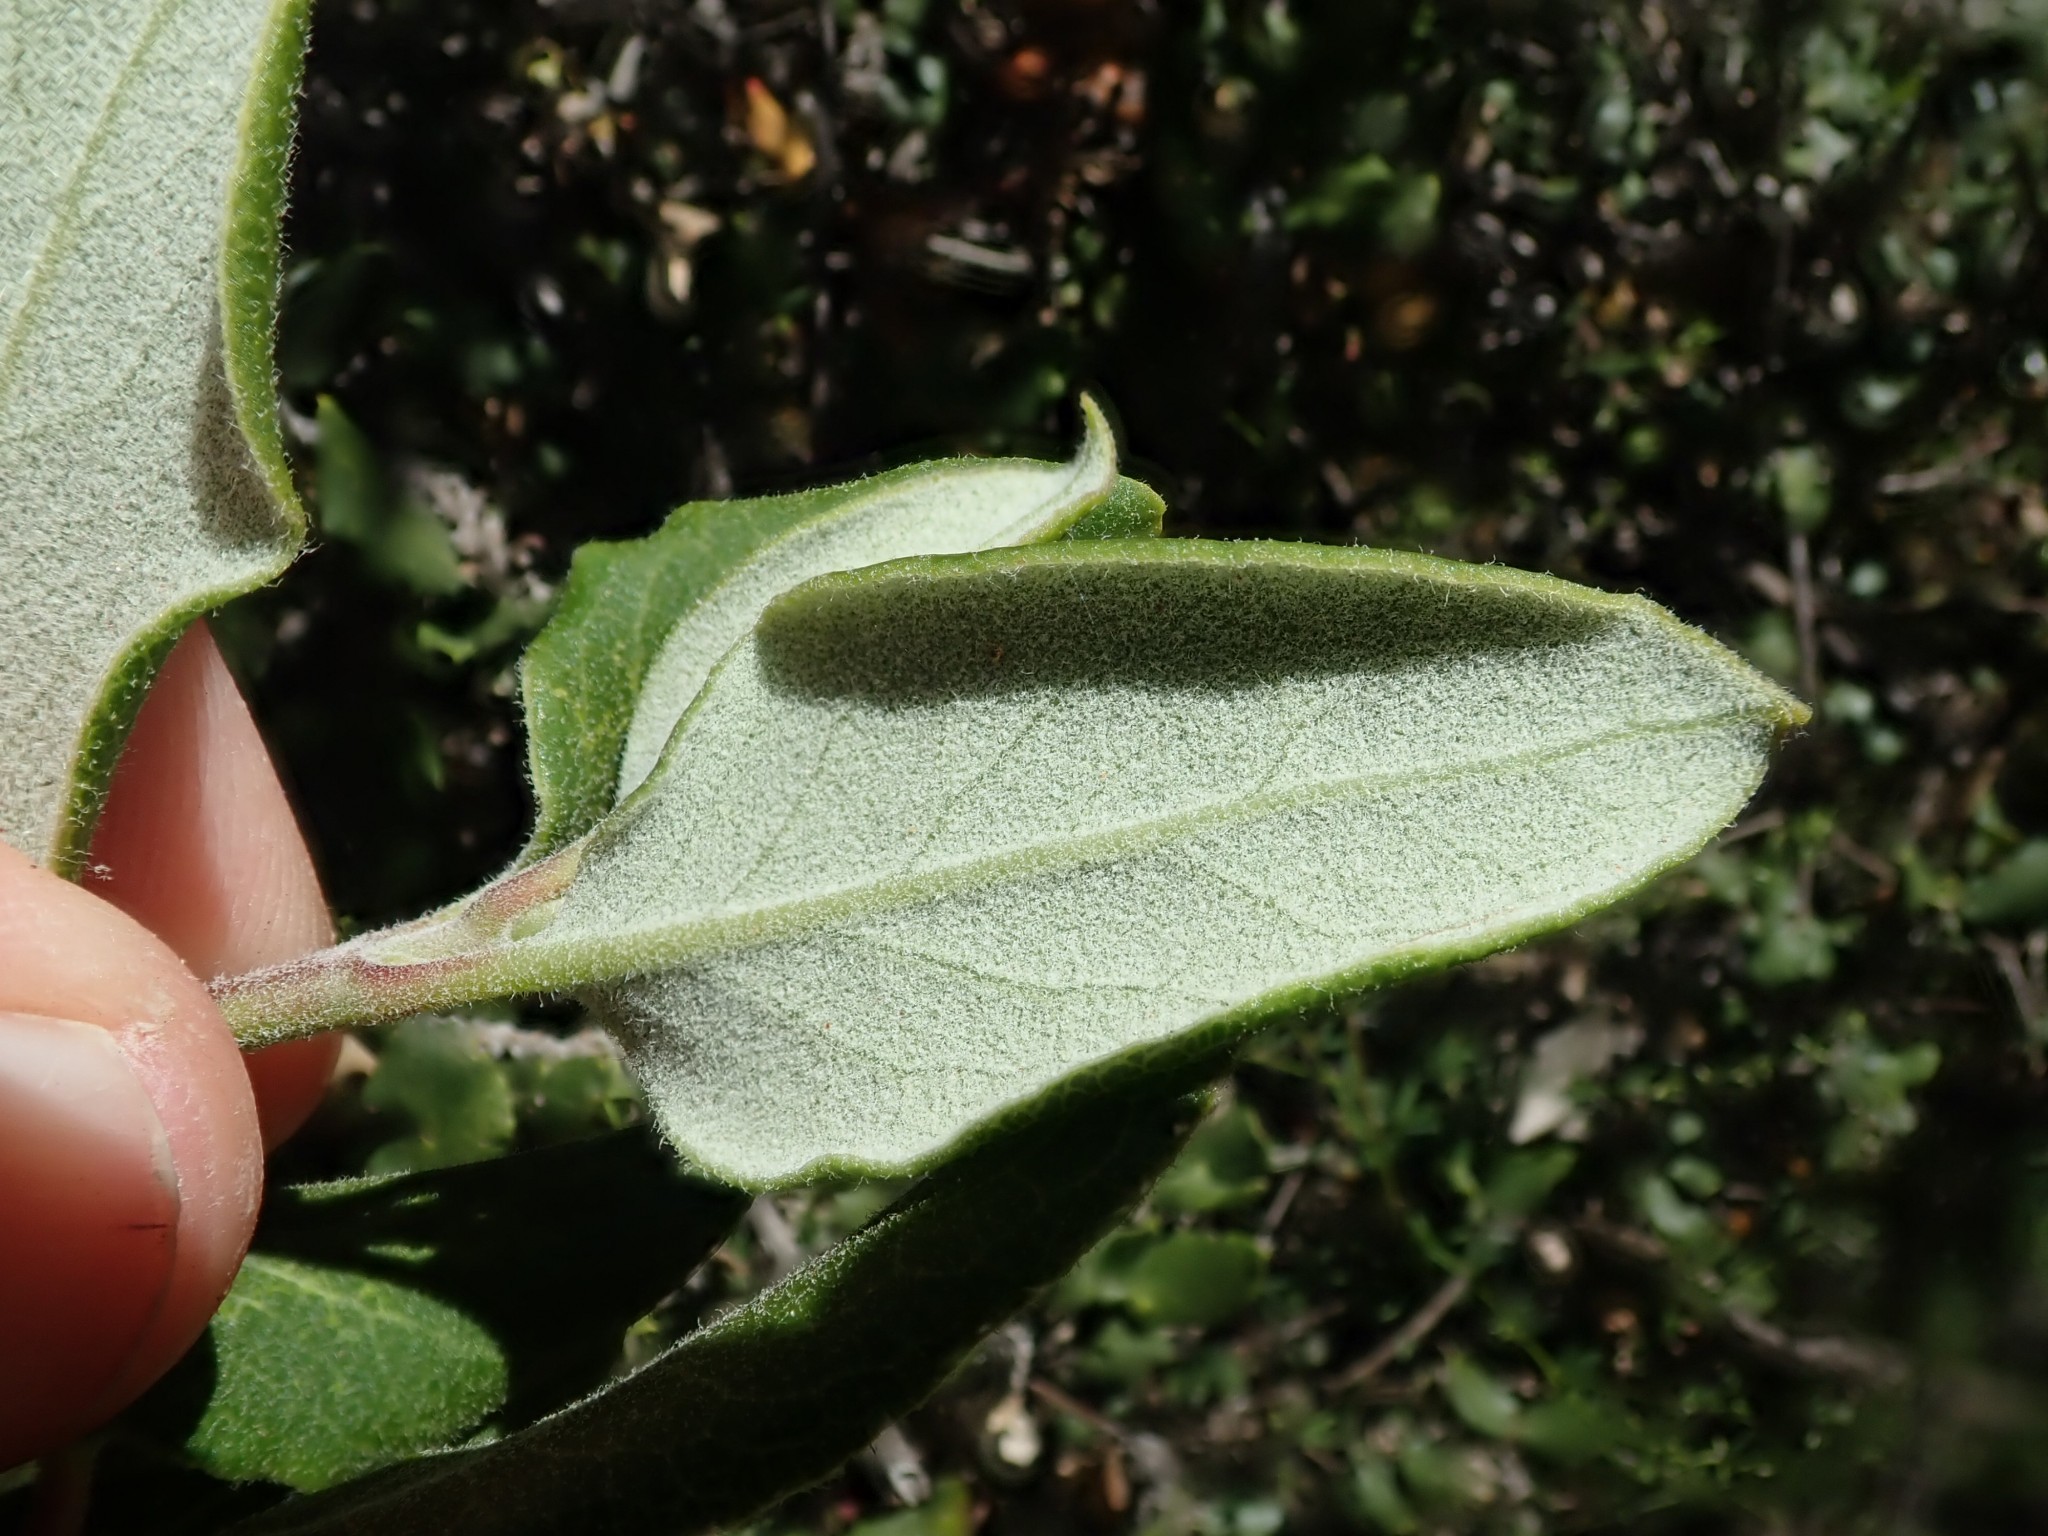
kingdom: Plantae
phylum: Tracheophyta
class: Magnoliopsida
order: Garryales
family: Garryaceae
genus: Garrya
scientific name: Garrya elliptica
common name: Silk-tassel
